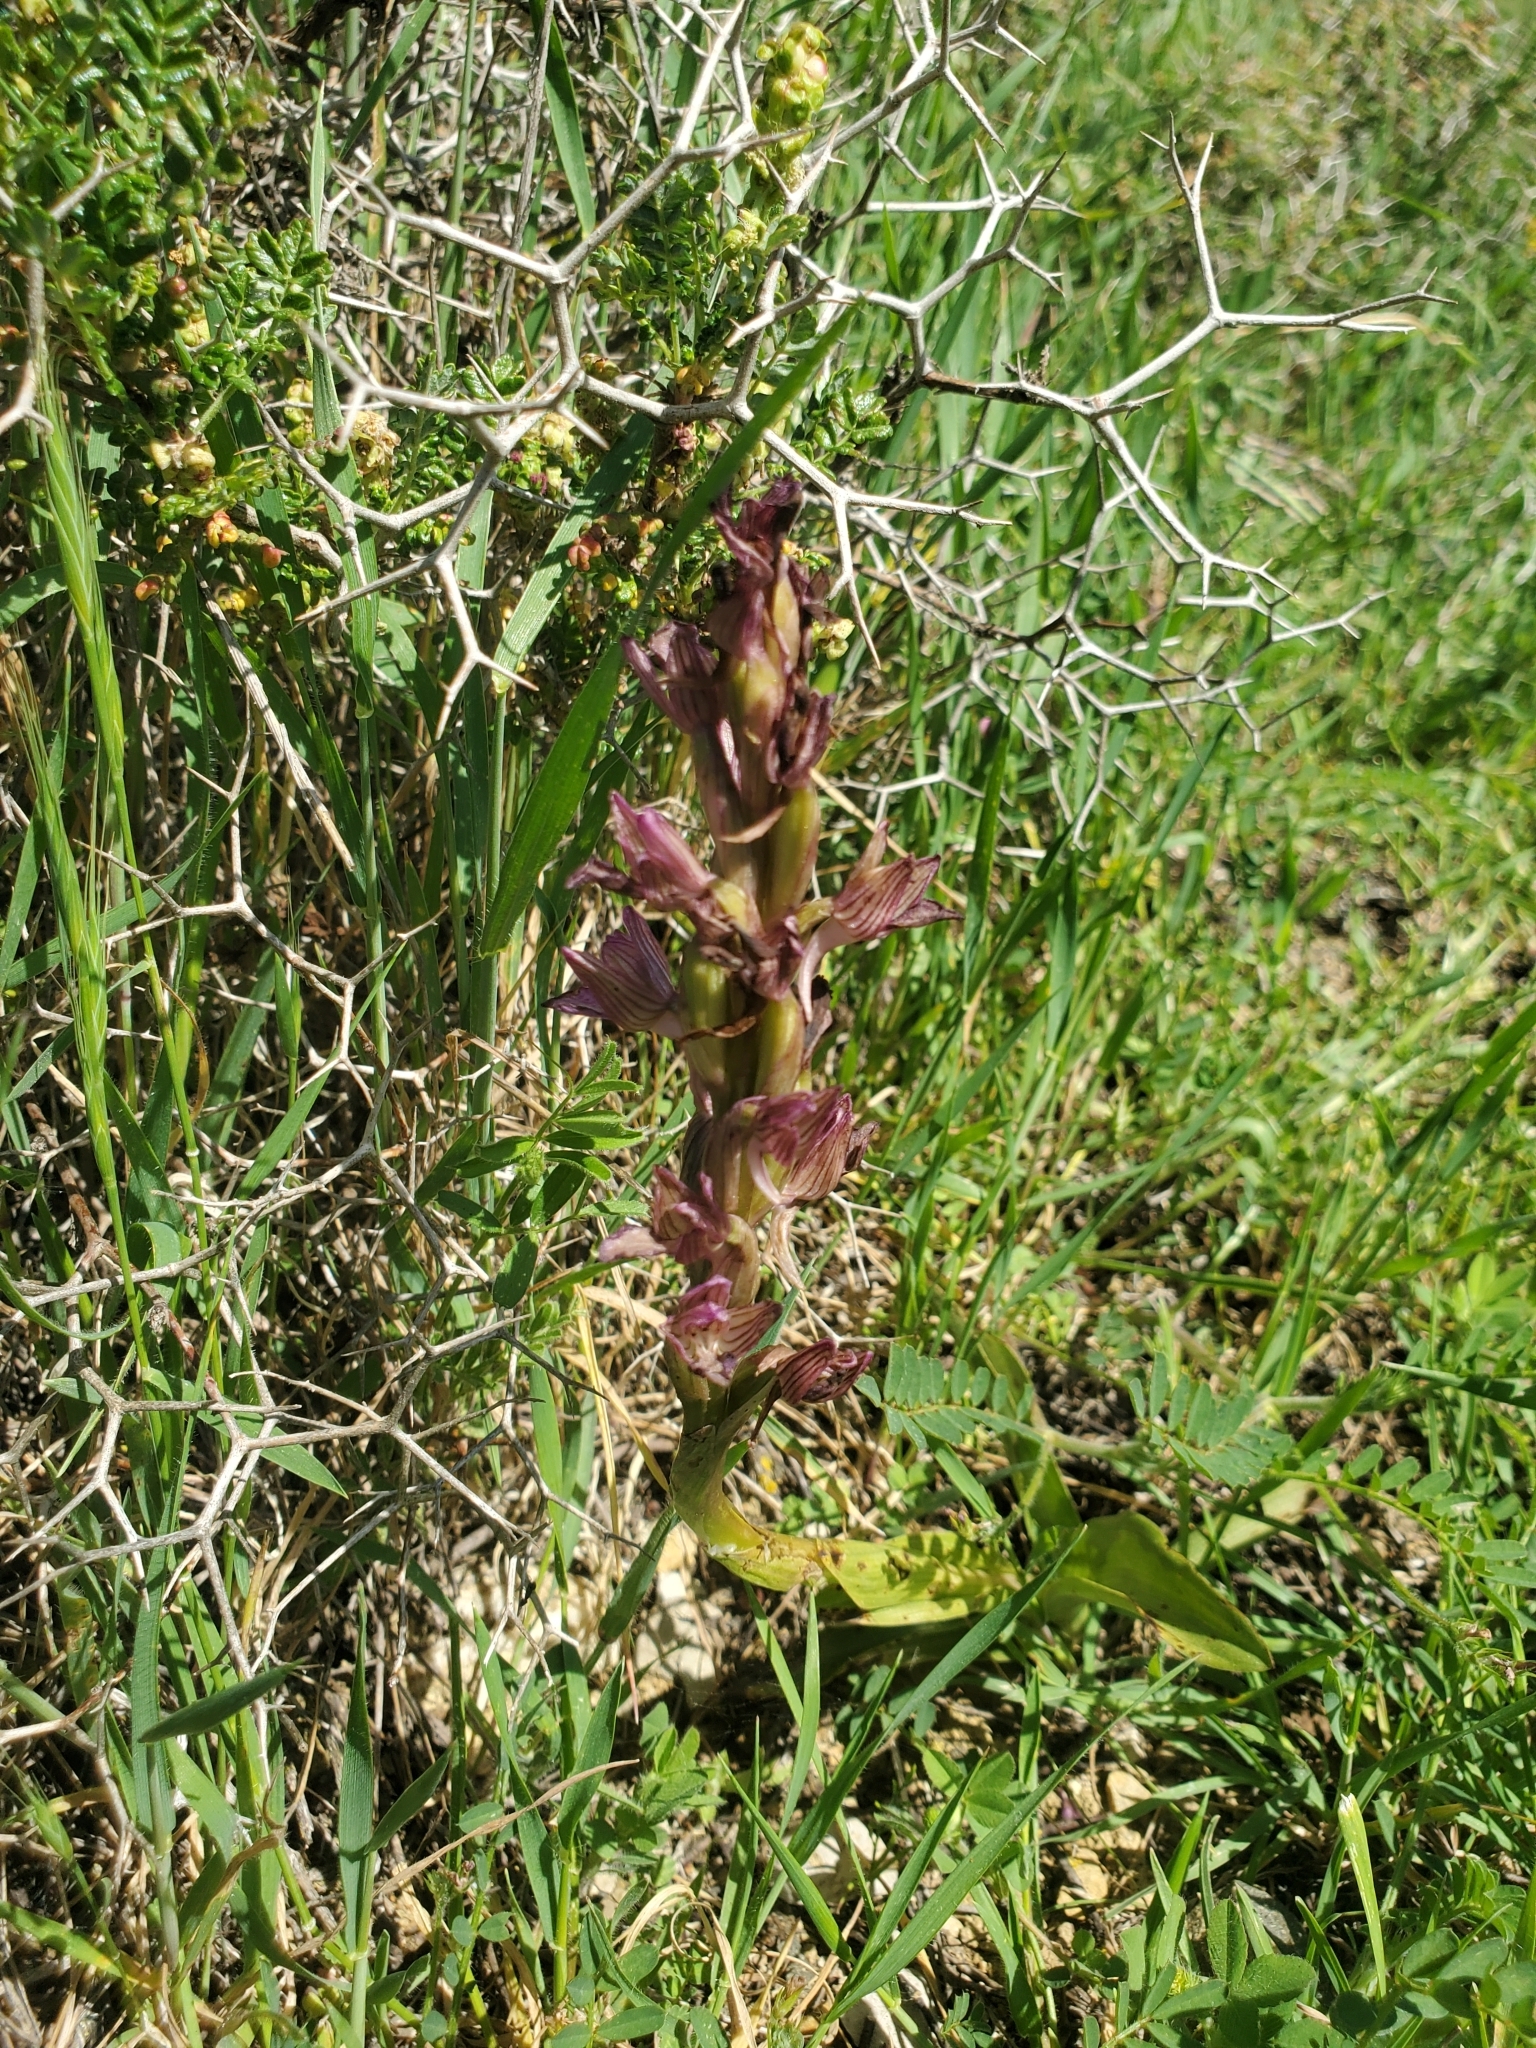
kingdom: Plantae
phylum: Tracheophyta
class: Liliopsida
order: Asparagales
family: Orchidaceae
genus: Anacamptis
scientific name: Anacamptis papilionacea
